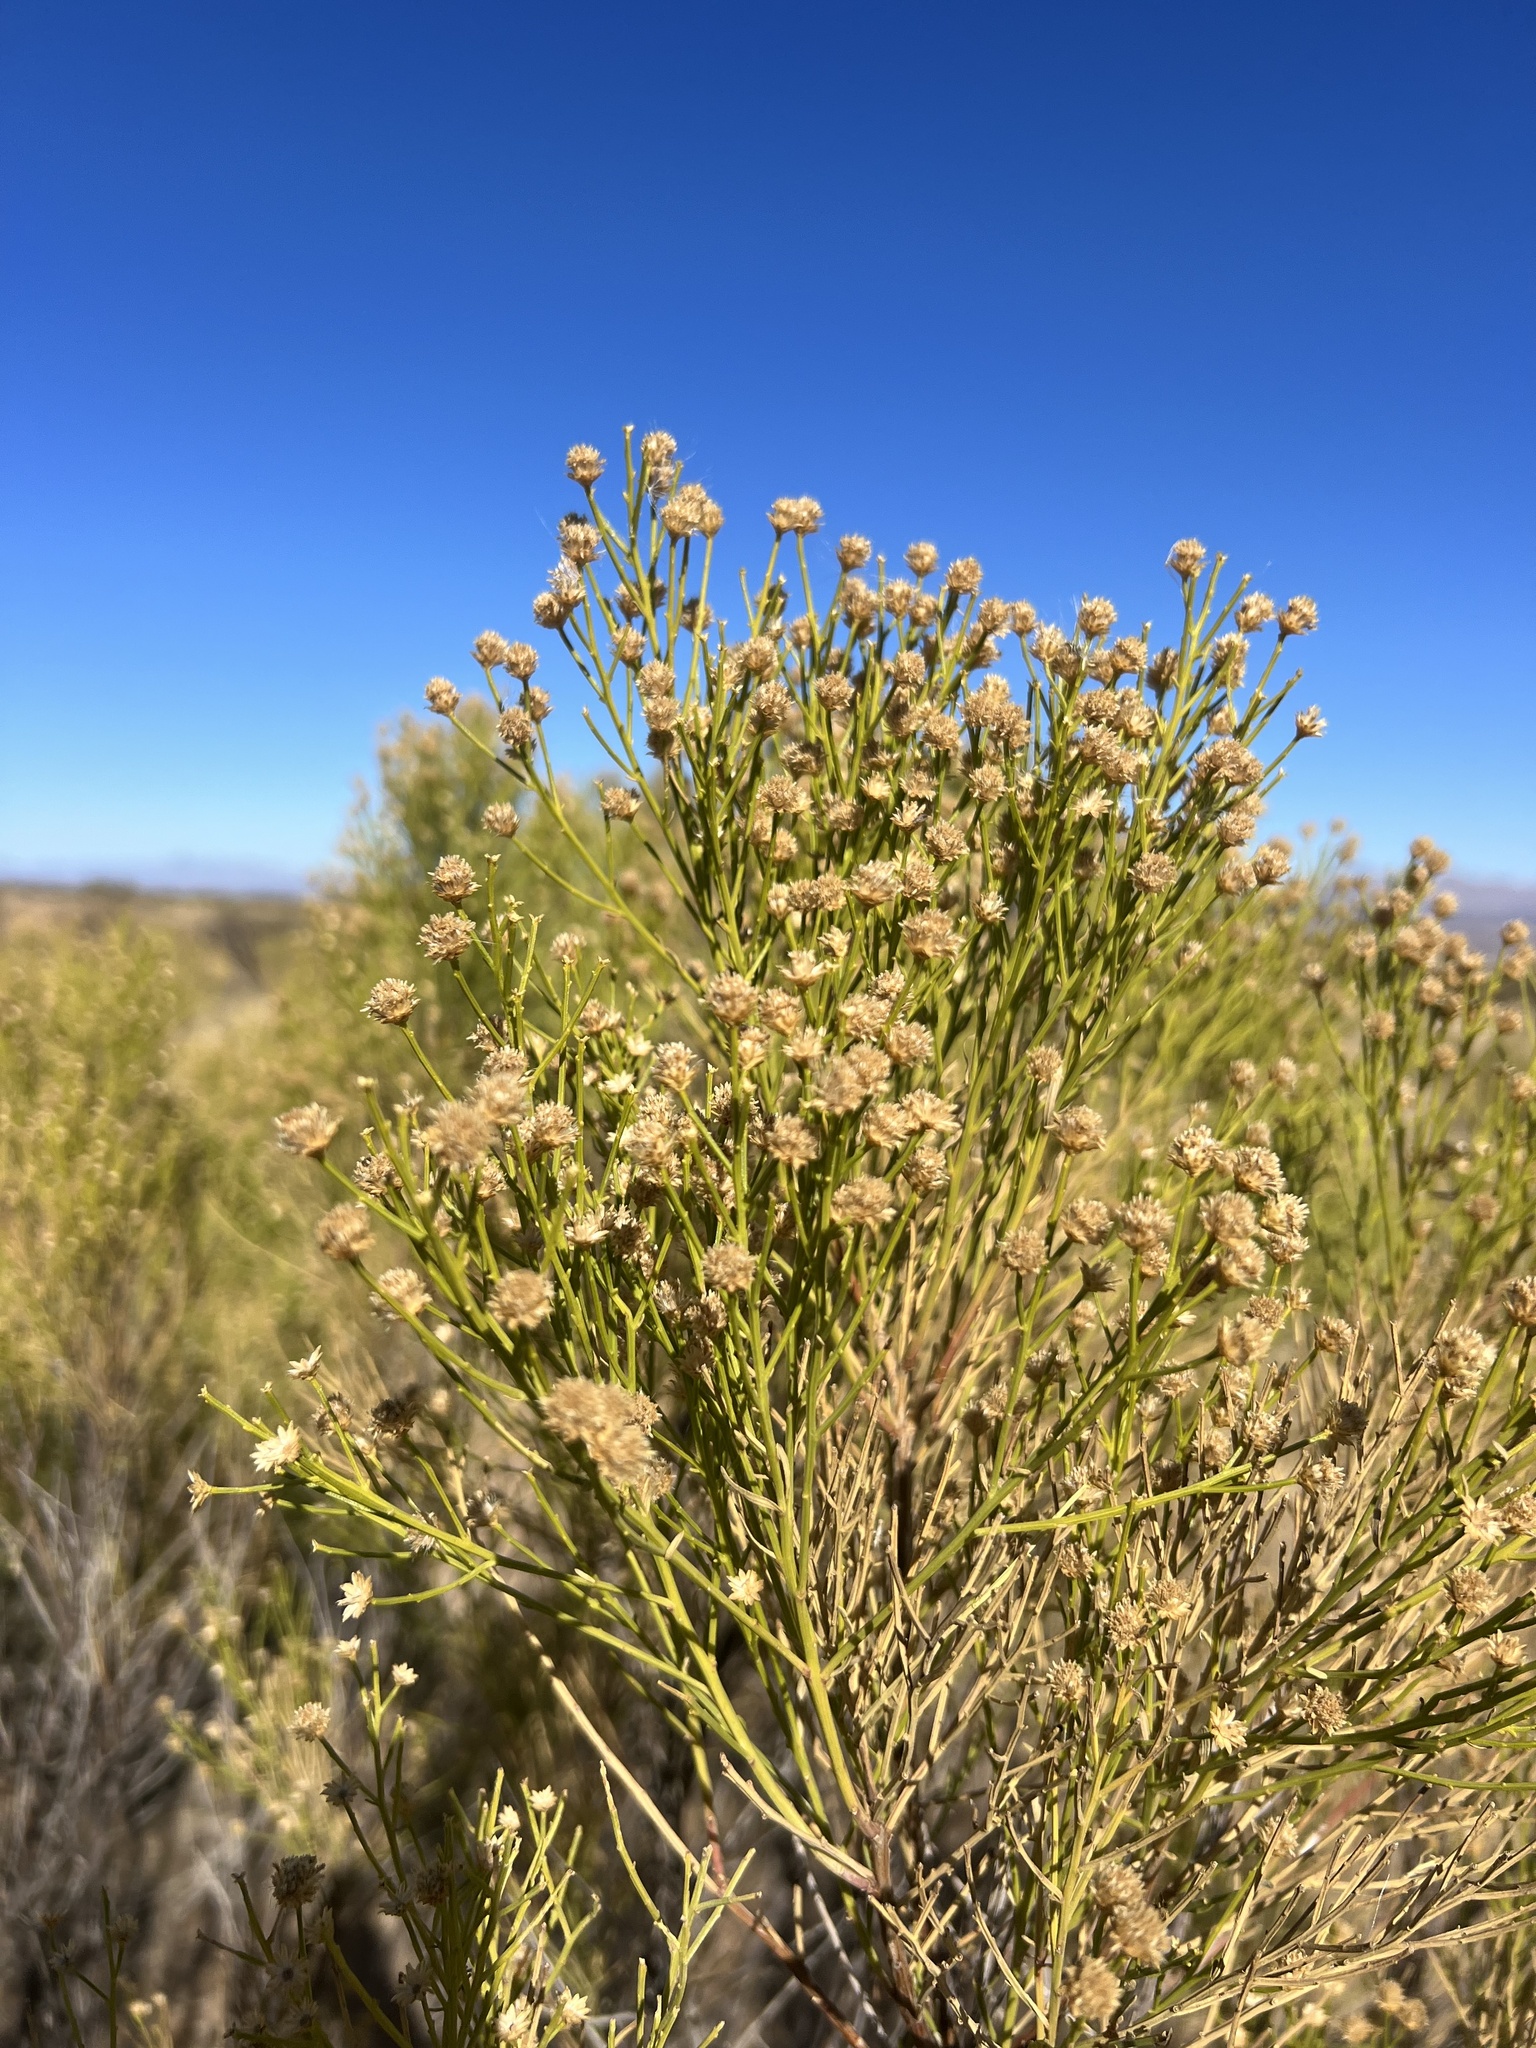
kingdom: Plantae
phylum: Tracheophyta
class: Magnoliopsida
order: Asterales
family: Asteraceae
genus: Baccharis
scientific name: Baccharis sarothroides
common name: Desert-broom
